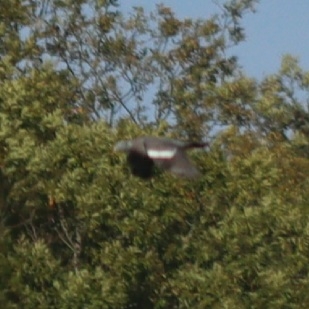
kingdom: Animalia
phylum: Chordata
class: Aves
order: Columbiformes
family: Columbidae
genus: Columba
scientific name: Columba palumbus
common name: Common wood pigeon
